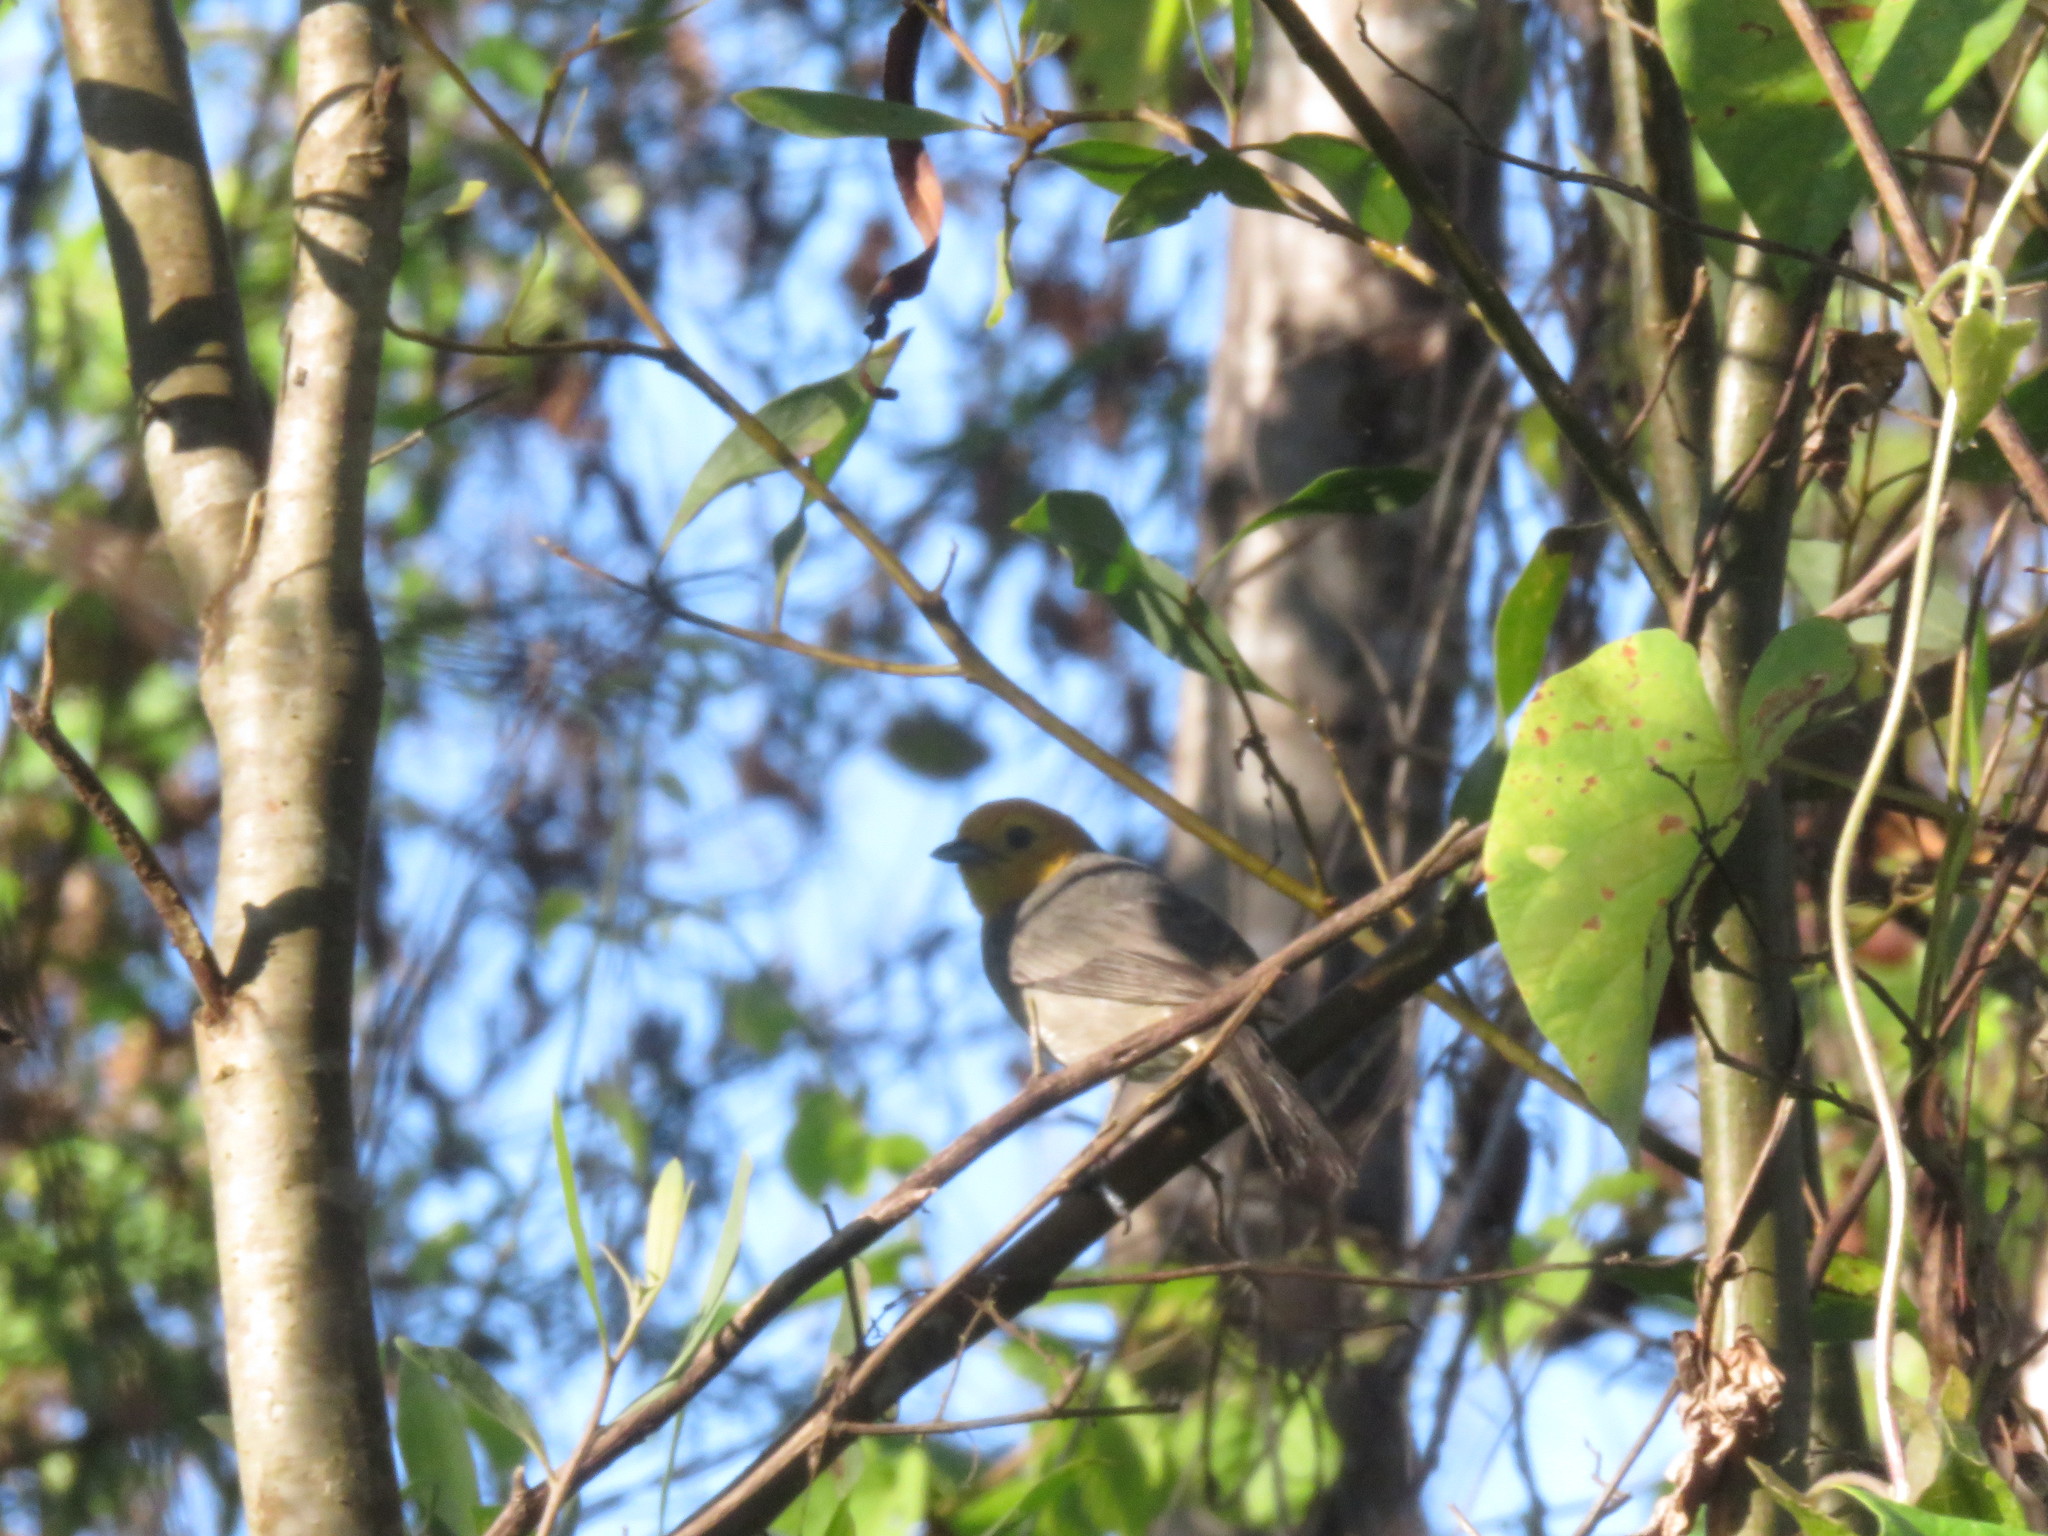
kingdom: Animalia
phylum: Chordata
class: Aves
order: Passeriformes
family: Thraupidae
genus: Thlypopsis
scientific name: Thlypopsis sordida
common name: Orange-headed tanager
